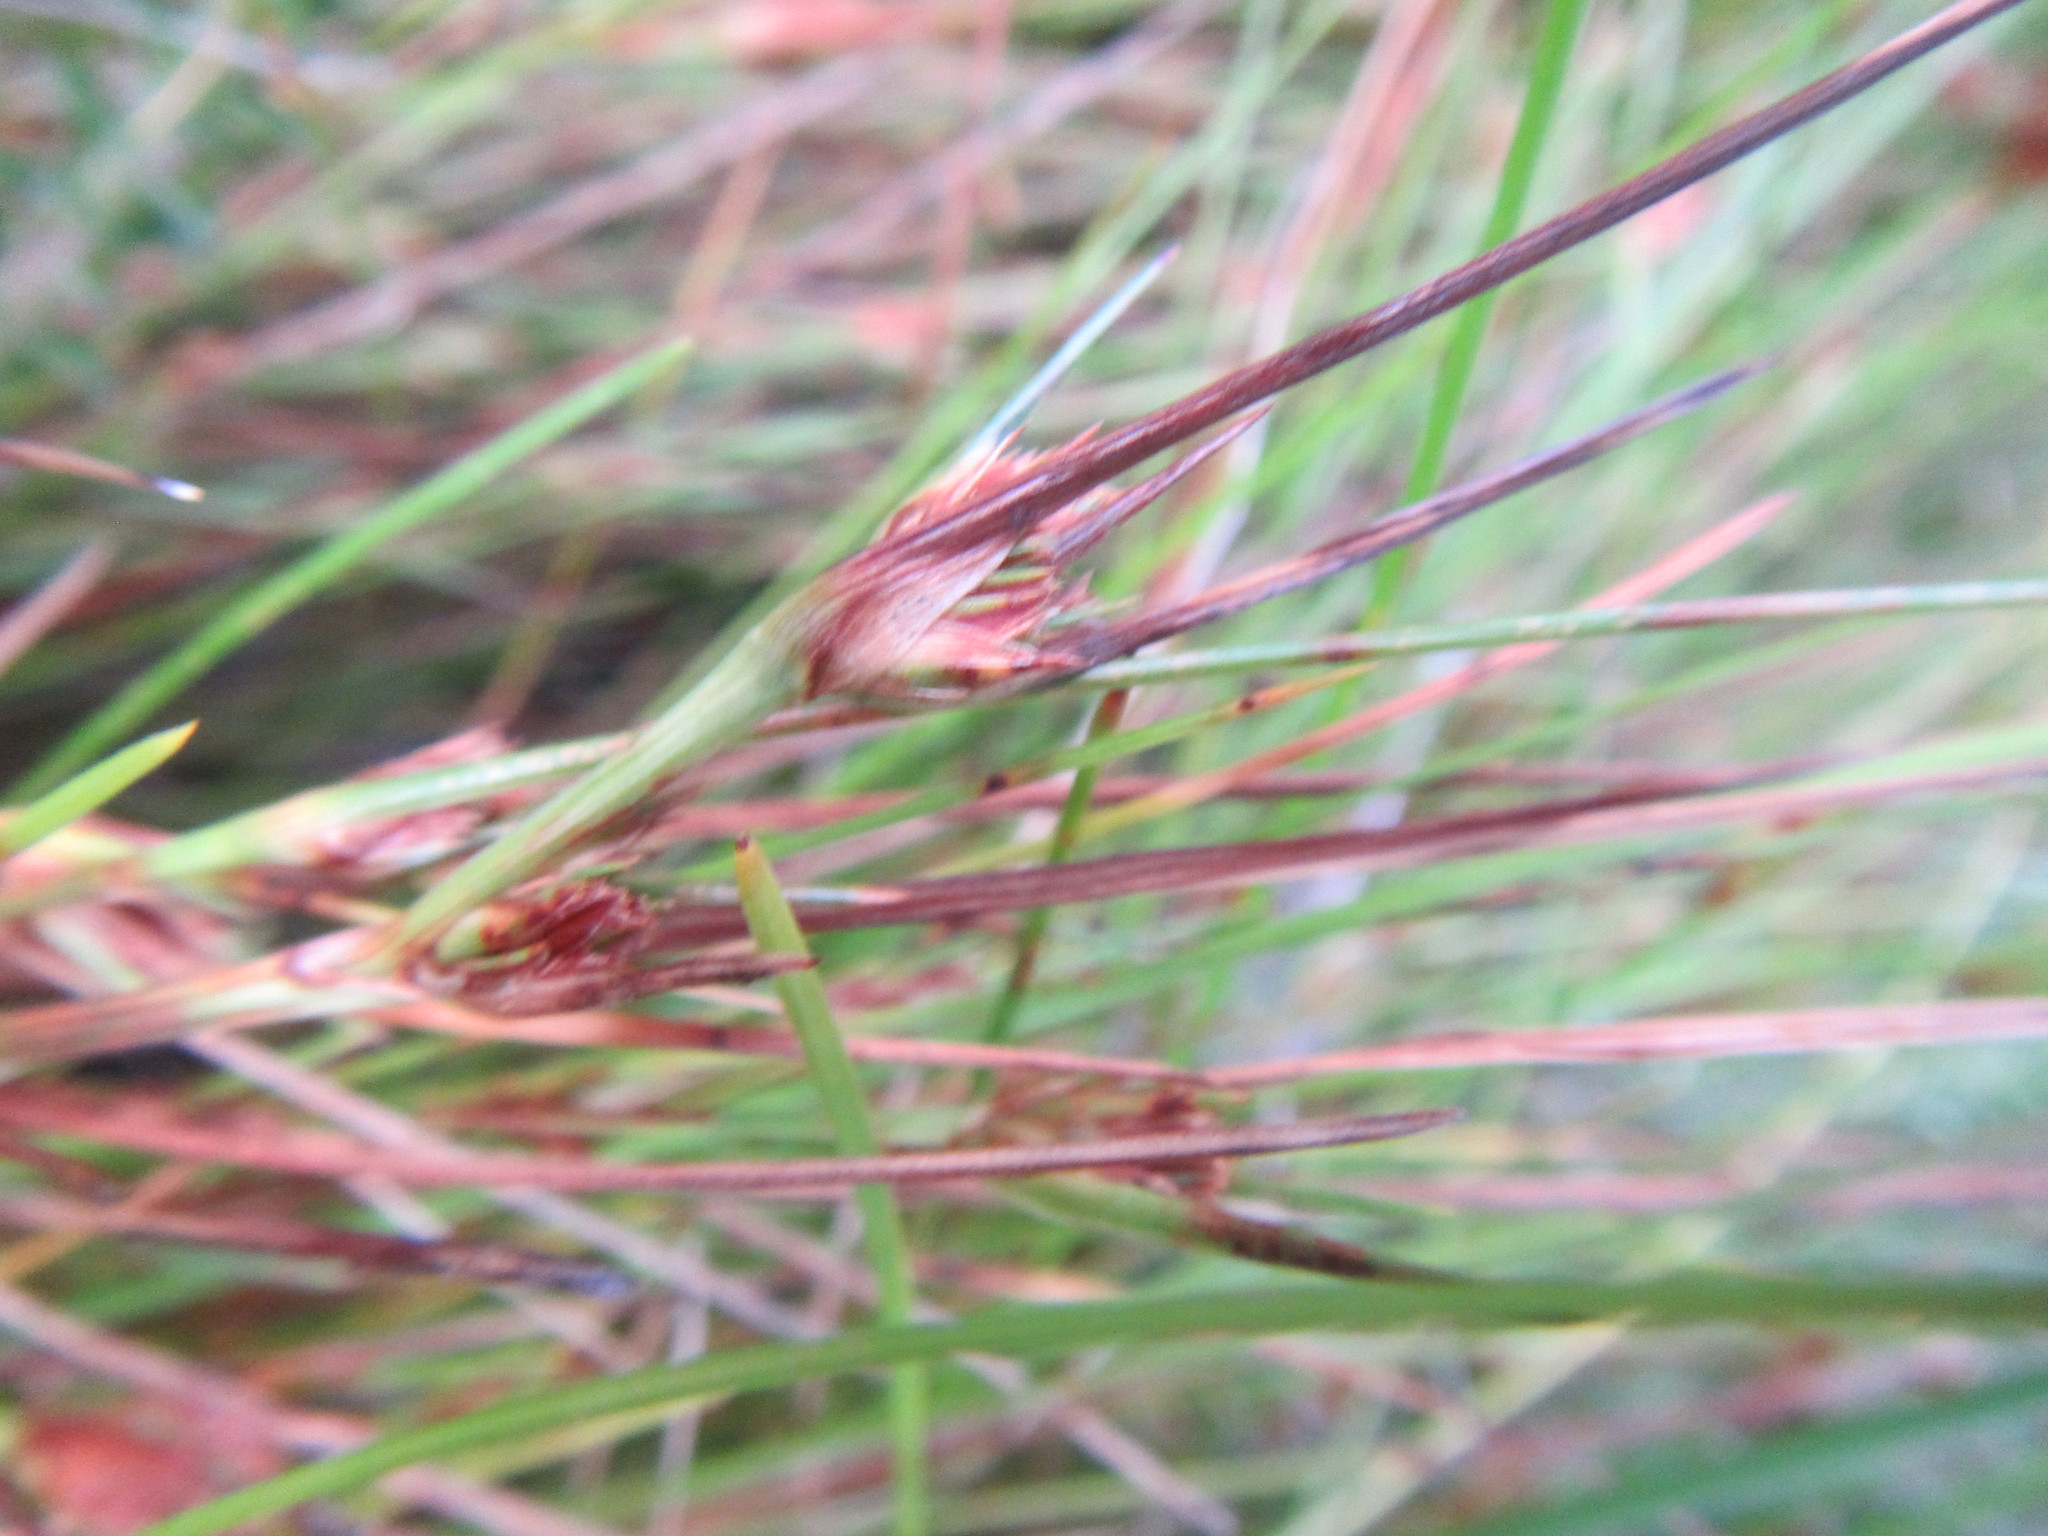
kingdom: Plantae
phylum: Tracheophyta
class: Liliopsida
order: Poales
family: Cyperaceae
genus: Ficinia
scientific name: Ficinia anceps
